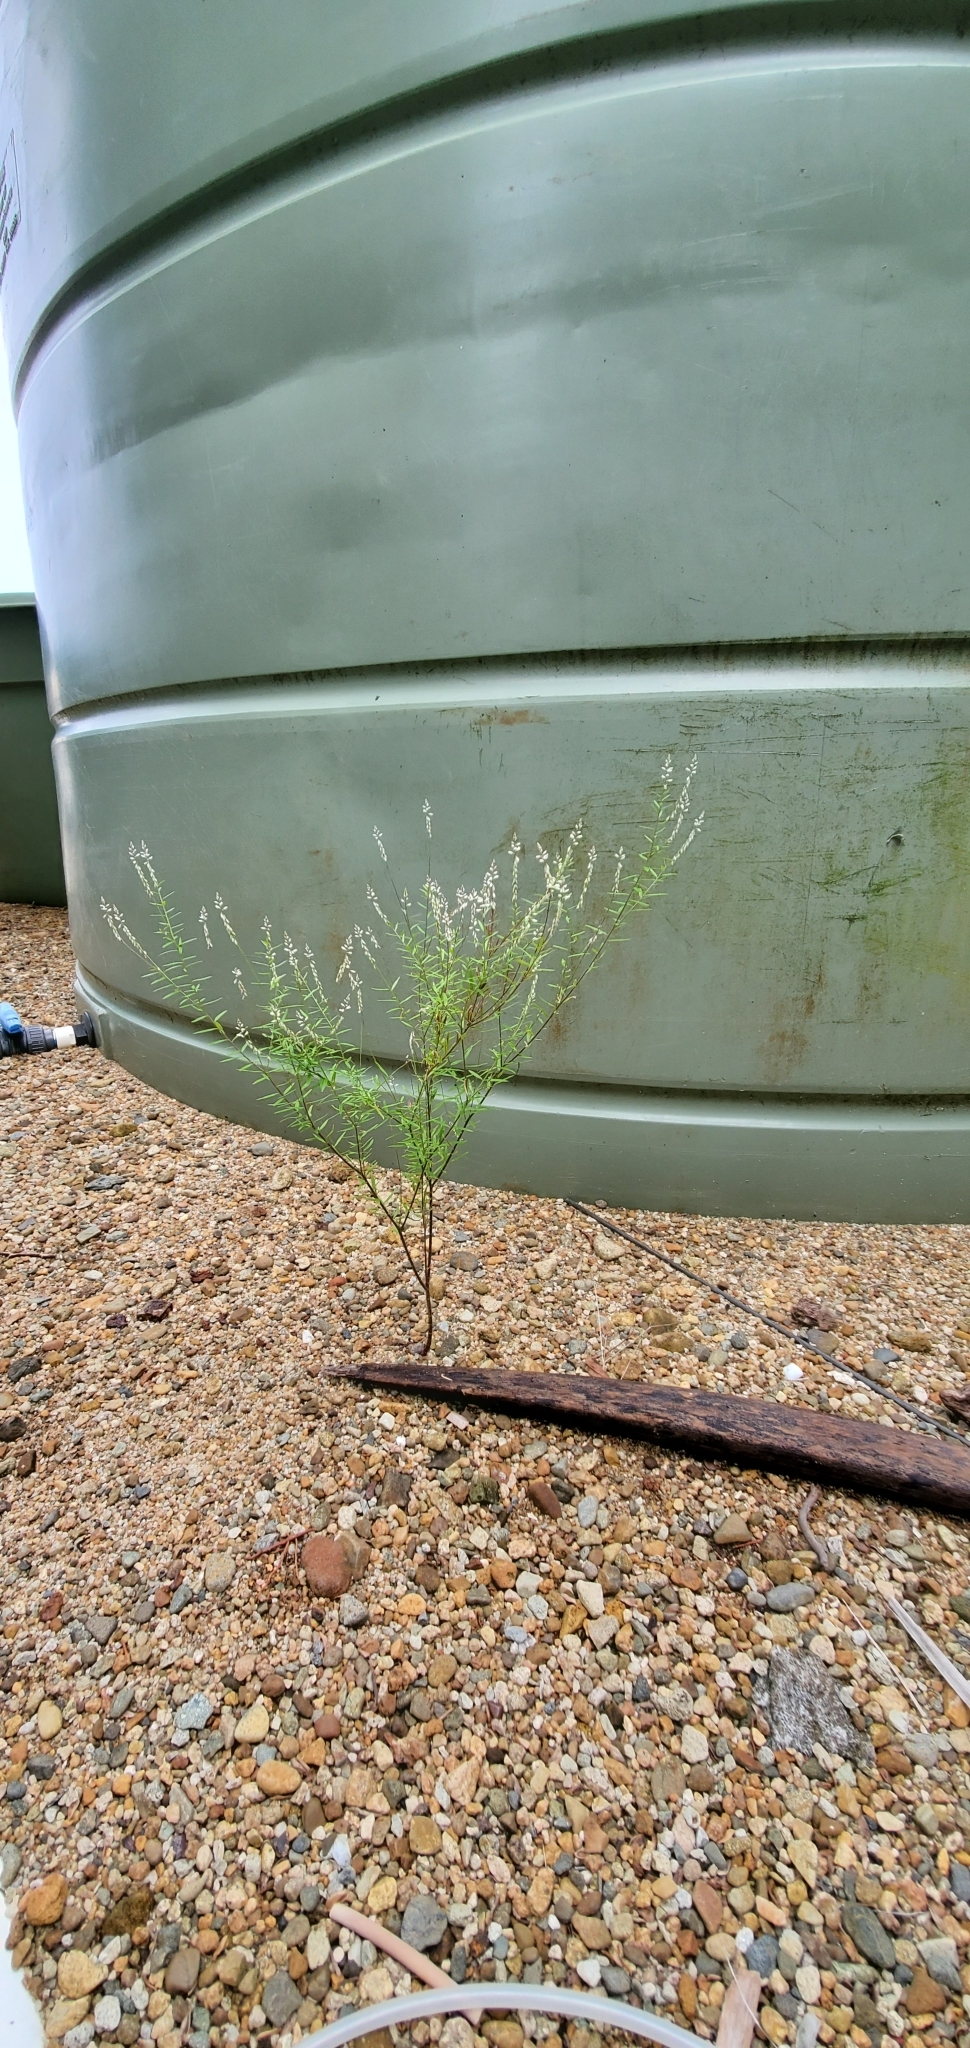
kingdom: Plantae
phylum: Tracheophyta
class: Magnoliopsida
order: Fabales
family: Polygalaceae
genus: Polygala
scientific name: Polygala paniculata
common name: Orosne
